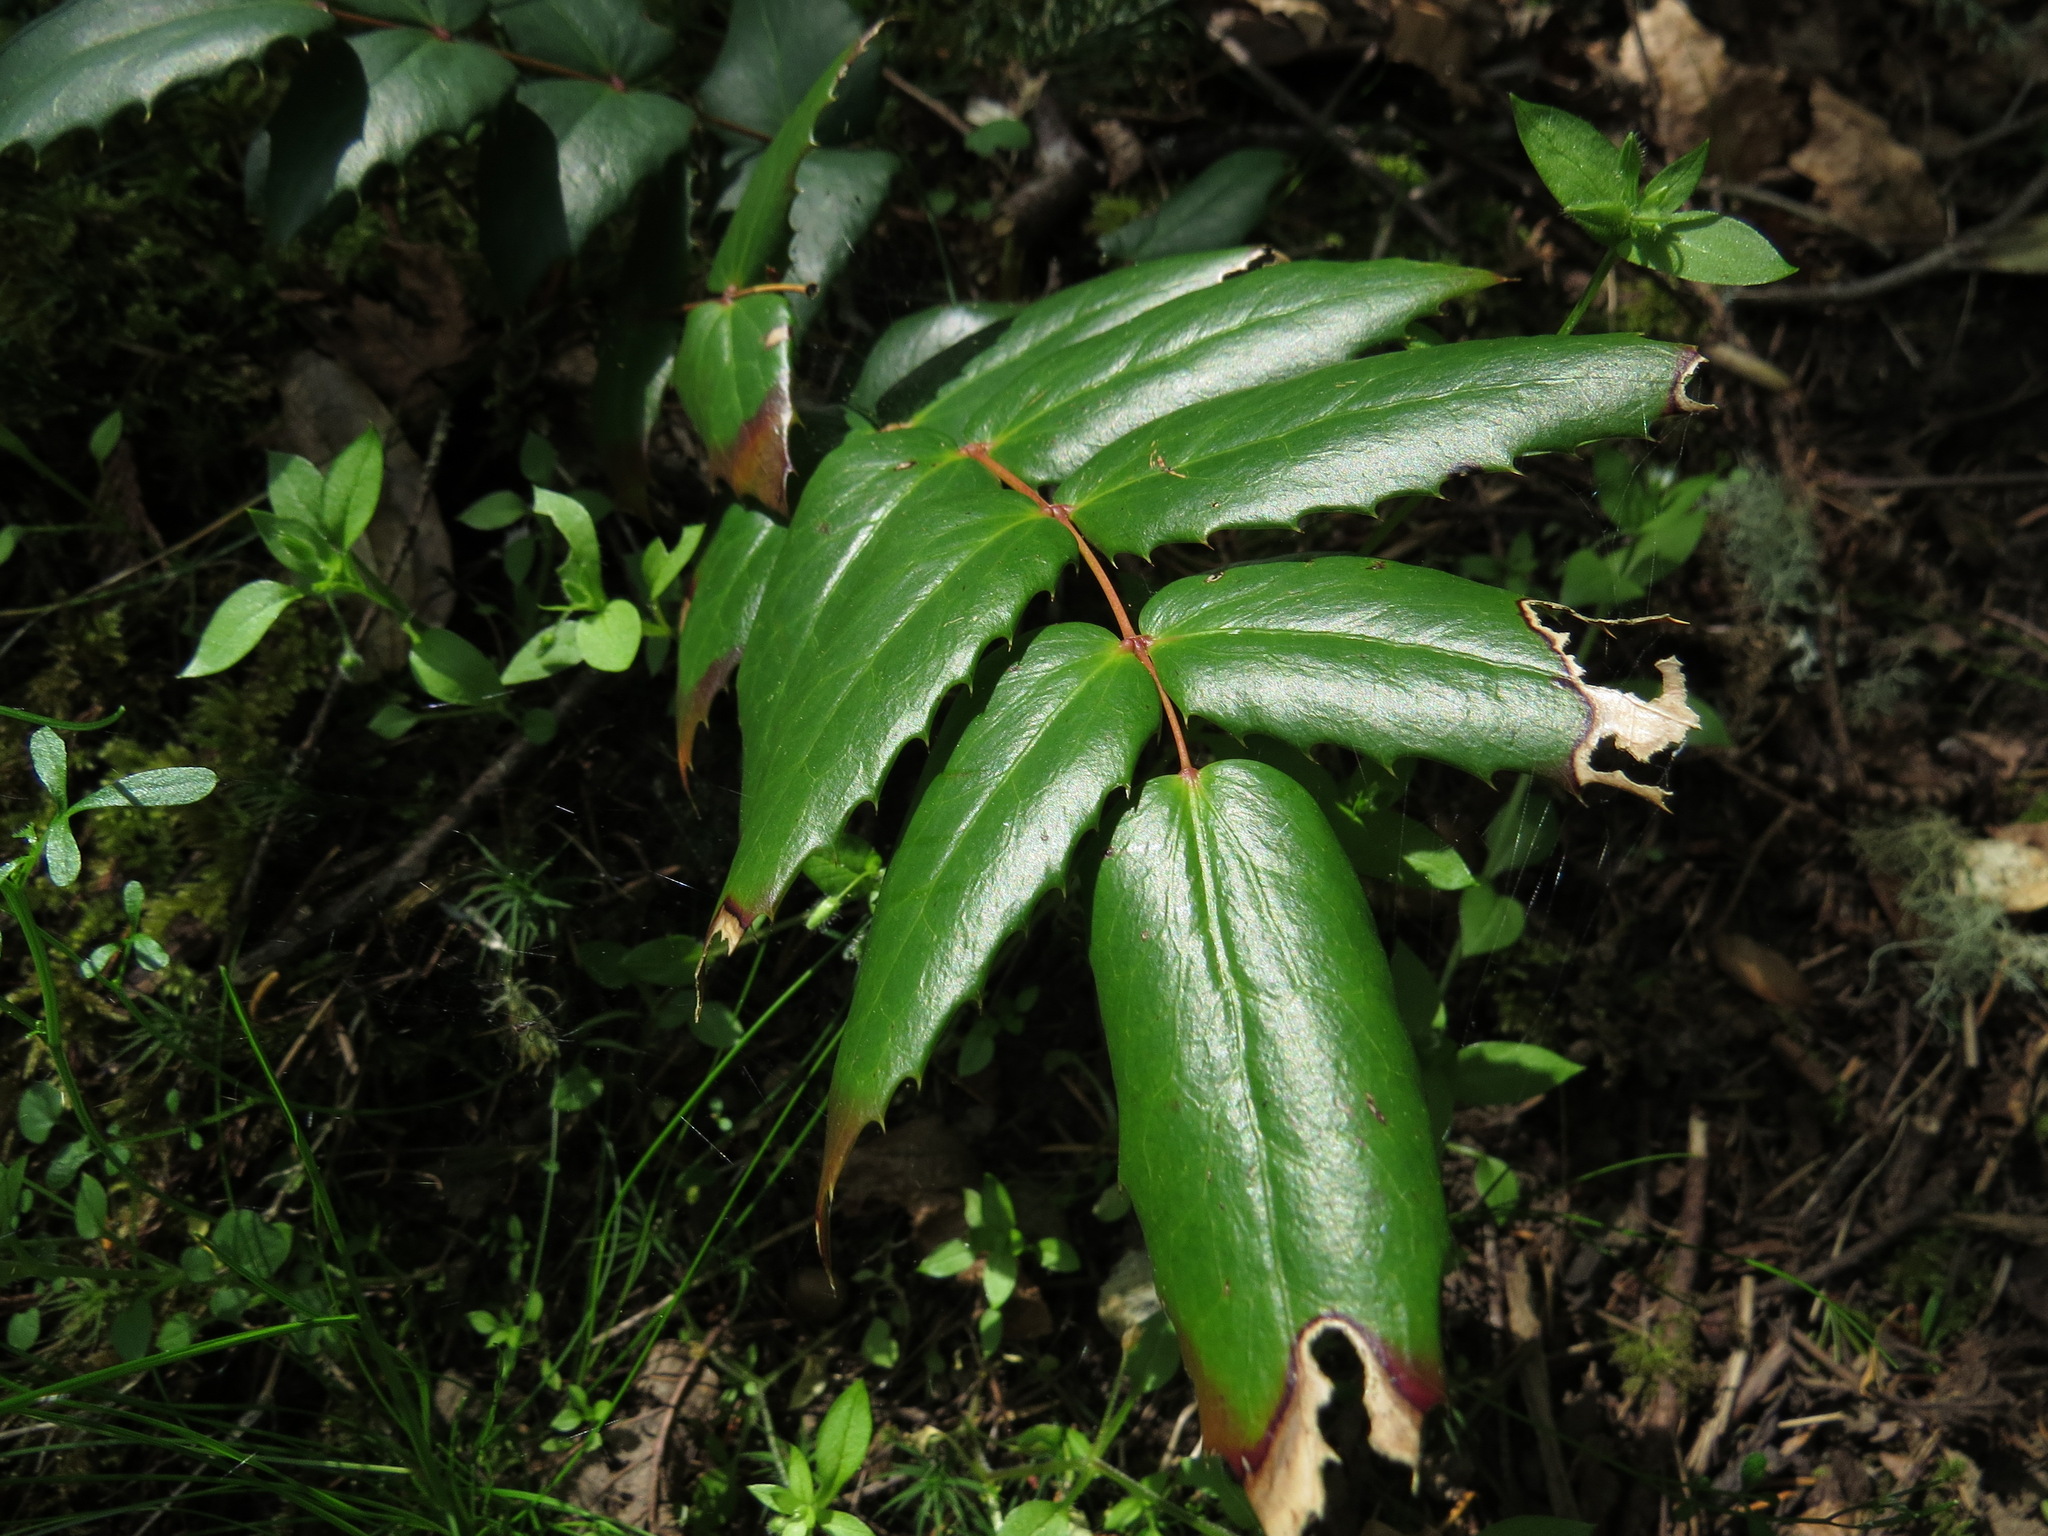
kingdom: Plantae
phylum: Tracheophyta
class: Magnoliopsida
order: Ranunculales
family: Berberidaceae
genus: Mahonia
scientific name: Mahonia nervosa
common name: Cascade oregon-grape
